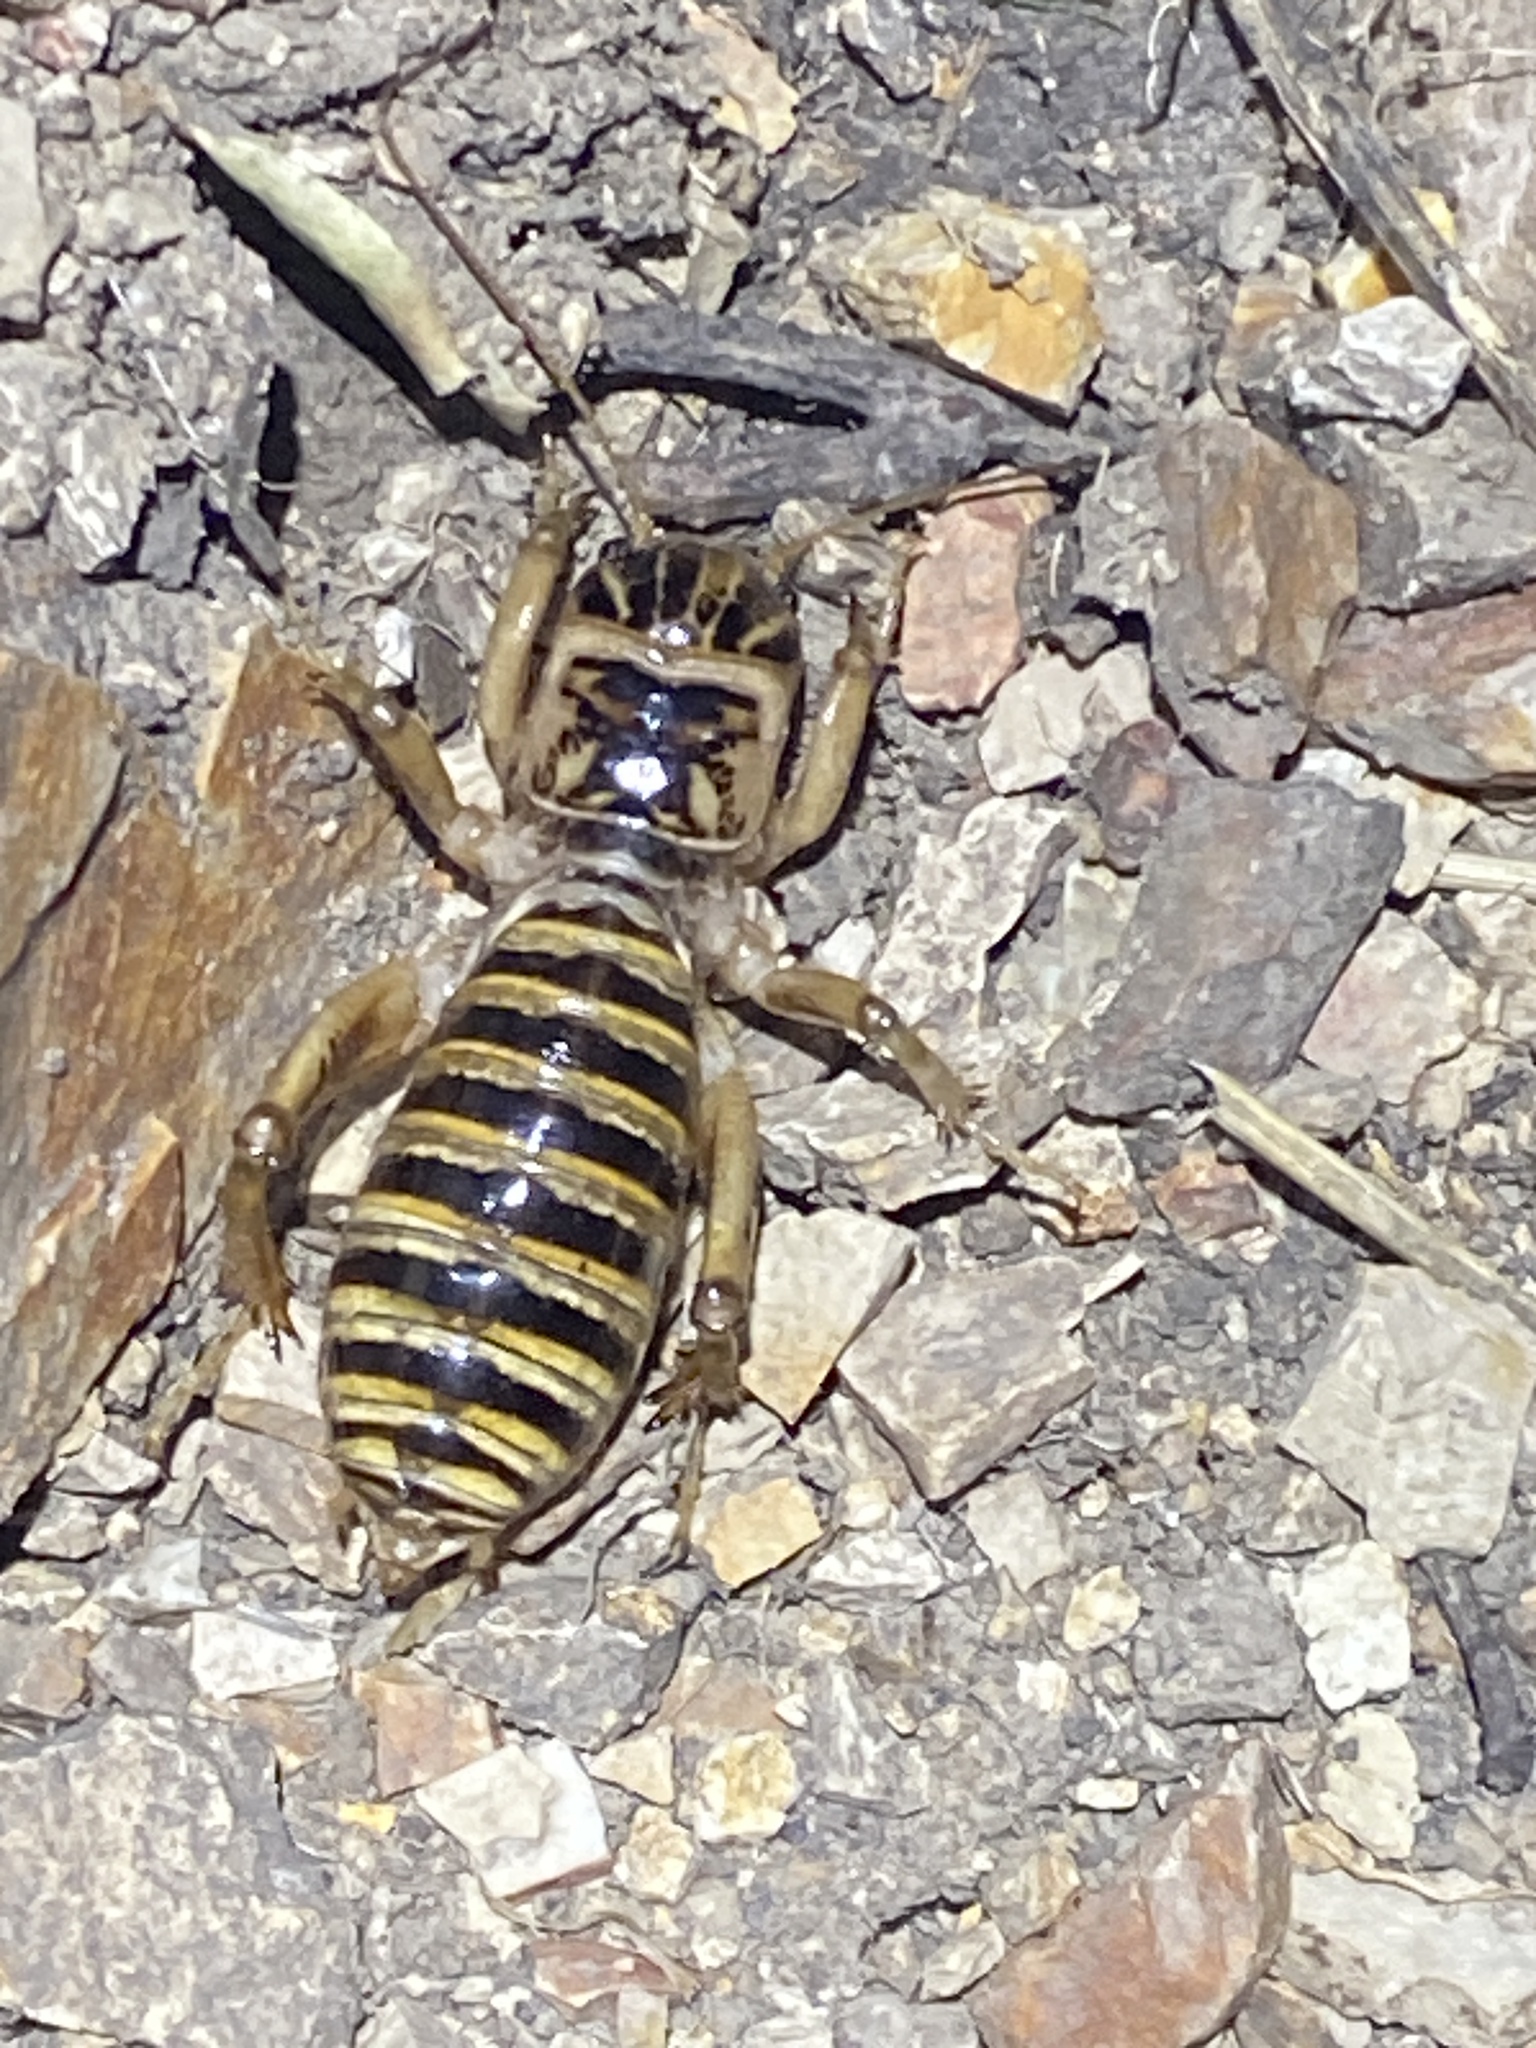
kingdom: Animalia
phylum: Arthropoda
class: Insecta
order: Orthoptera
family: Stenopelmatidae
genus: Ammopelmatus
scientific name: Ammopelmatus pictus
